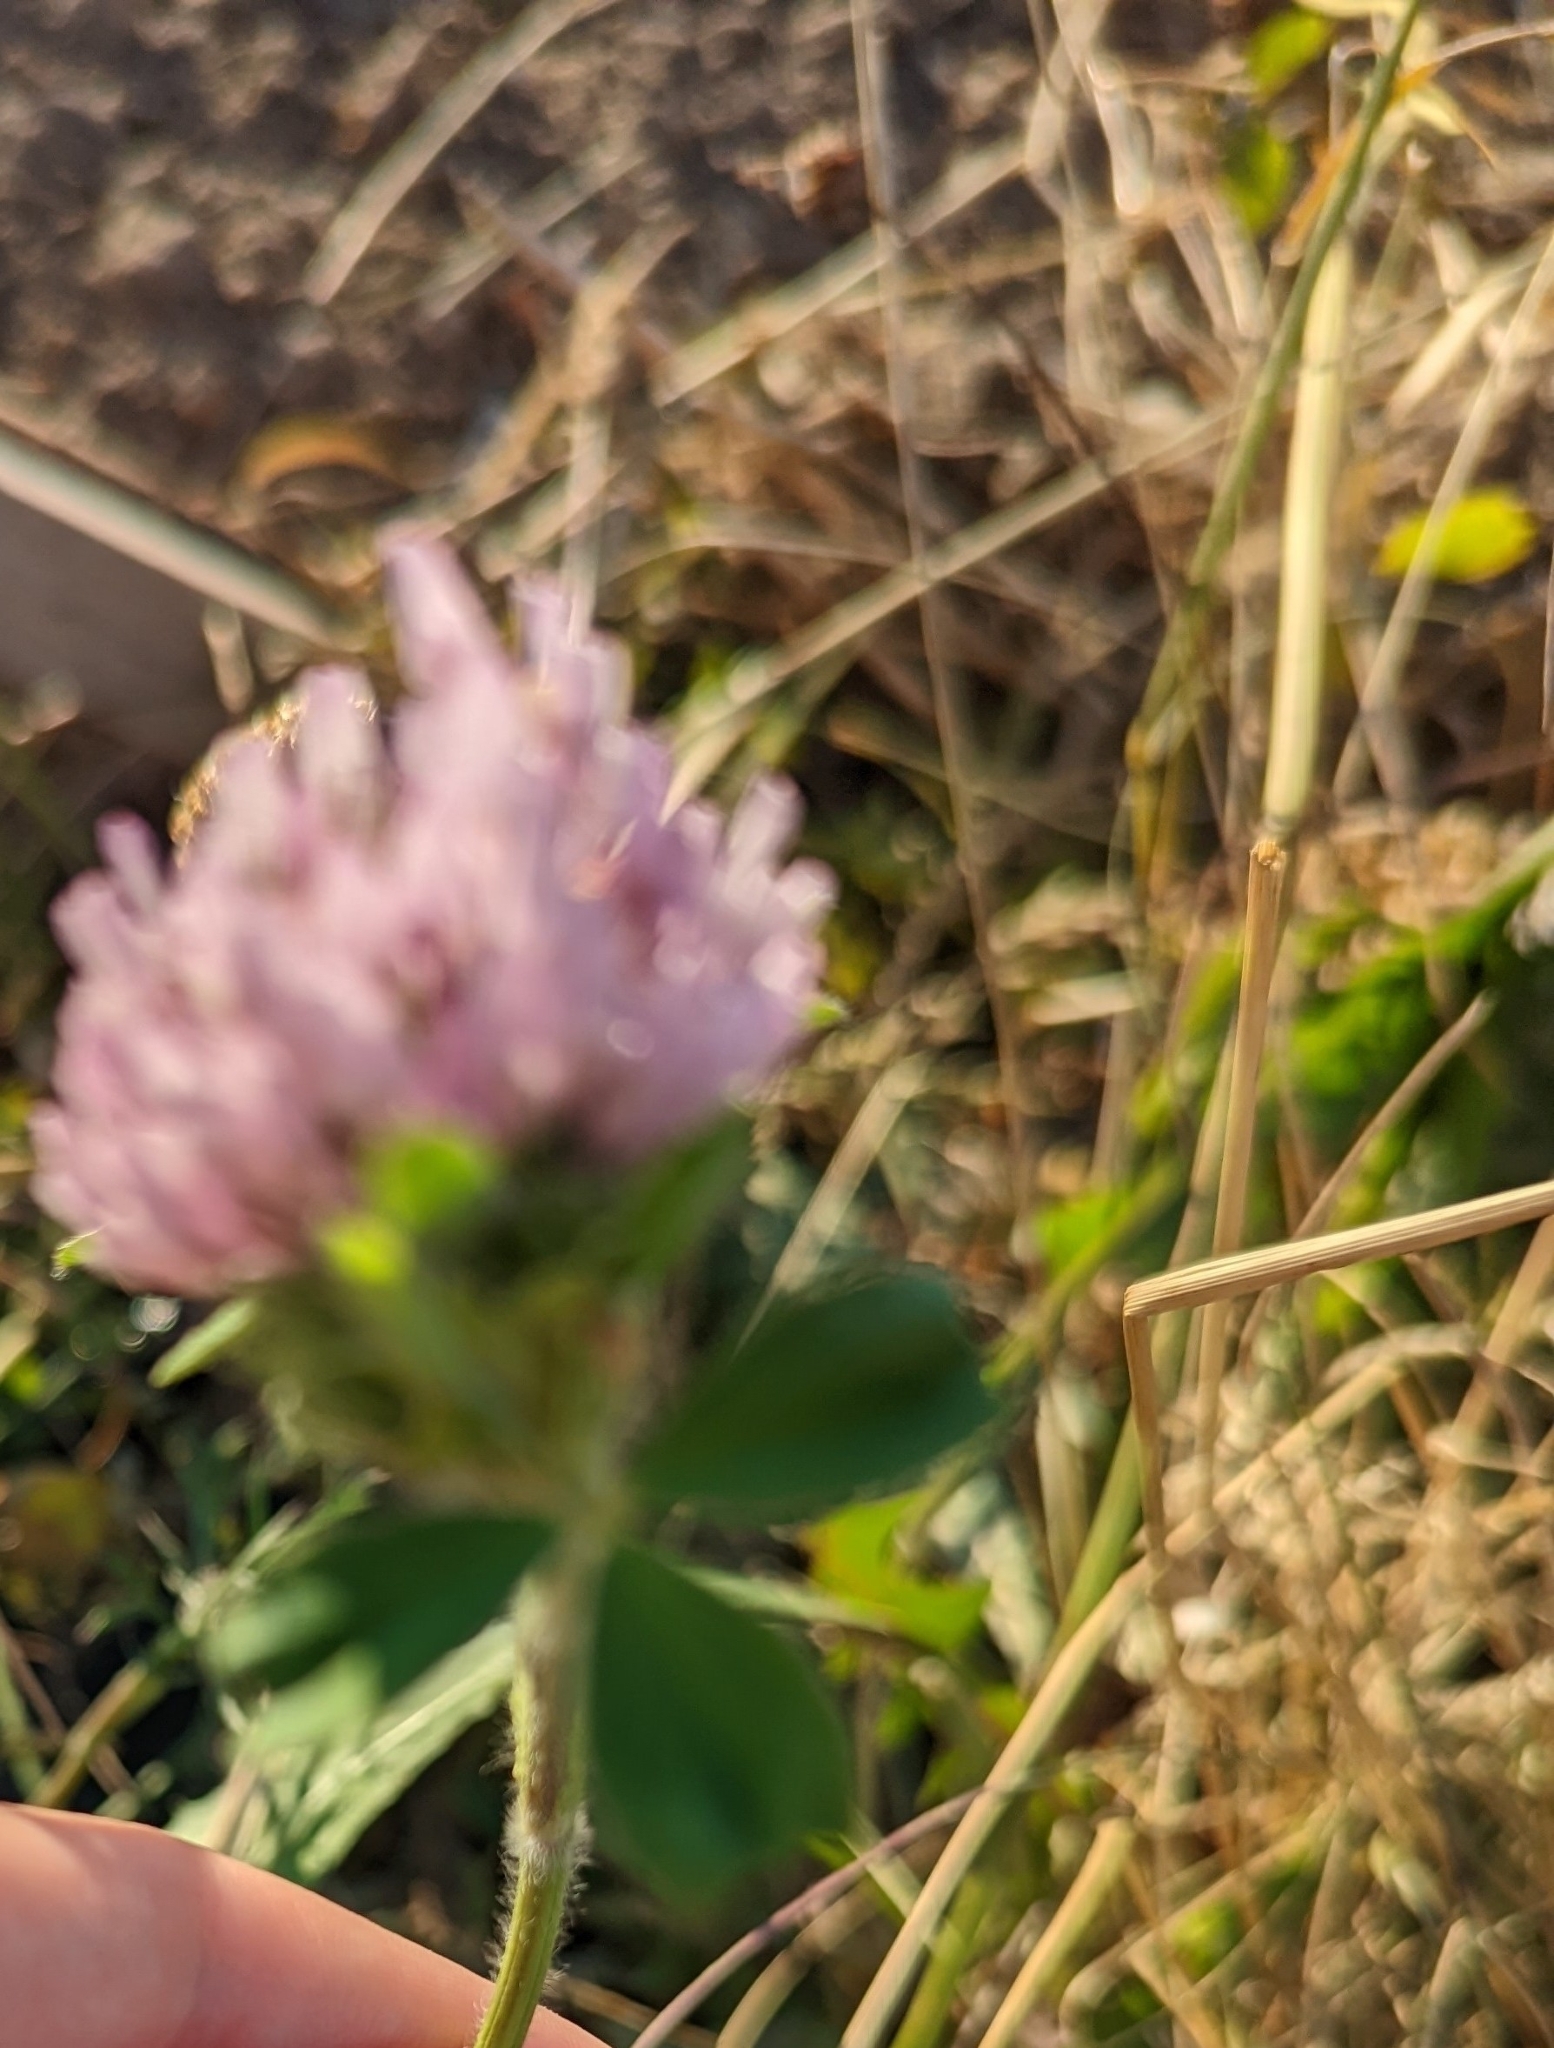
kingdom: Plantae
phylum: Tracheophyta
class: Magnoliopsida
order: Fabales
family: Fabaceae
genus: Trifolium
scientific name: Trifolium pratense
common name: Red clover
